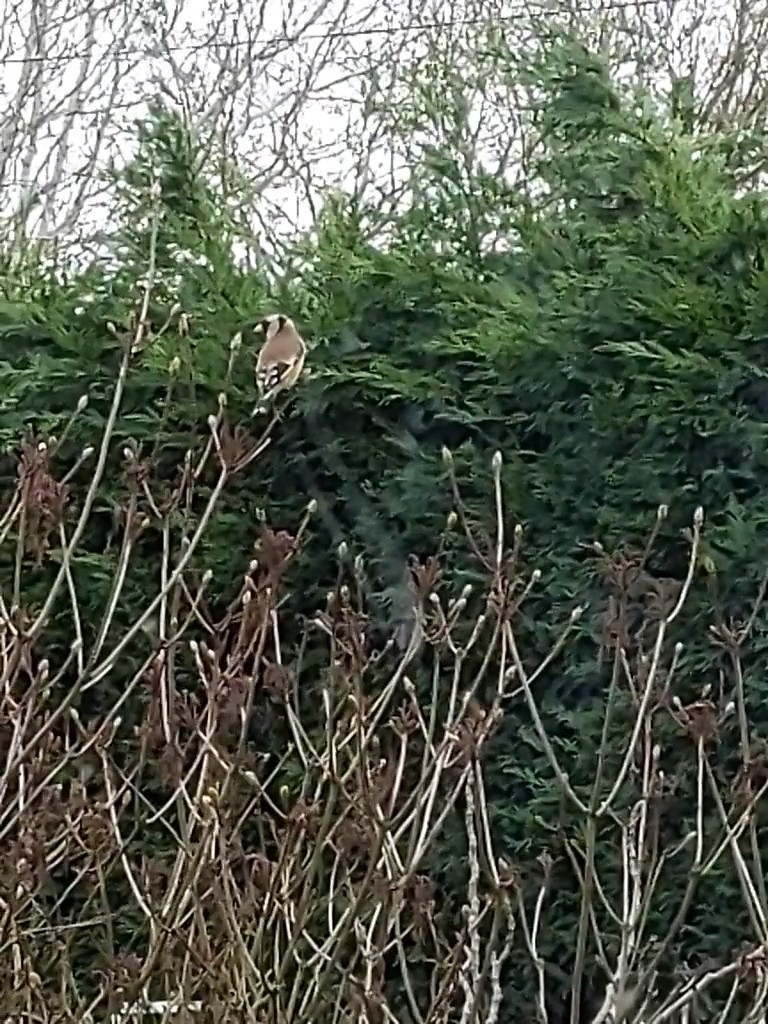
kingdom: Animalia
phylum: Chordata
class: Aves
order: Passeriformes
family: Fringillidae
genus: Carduelis
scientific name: Carduelis carduelis
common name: European goldfinch
